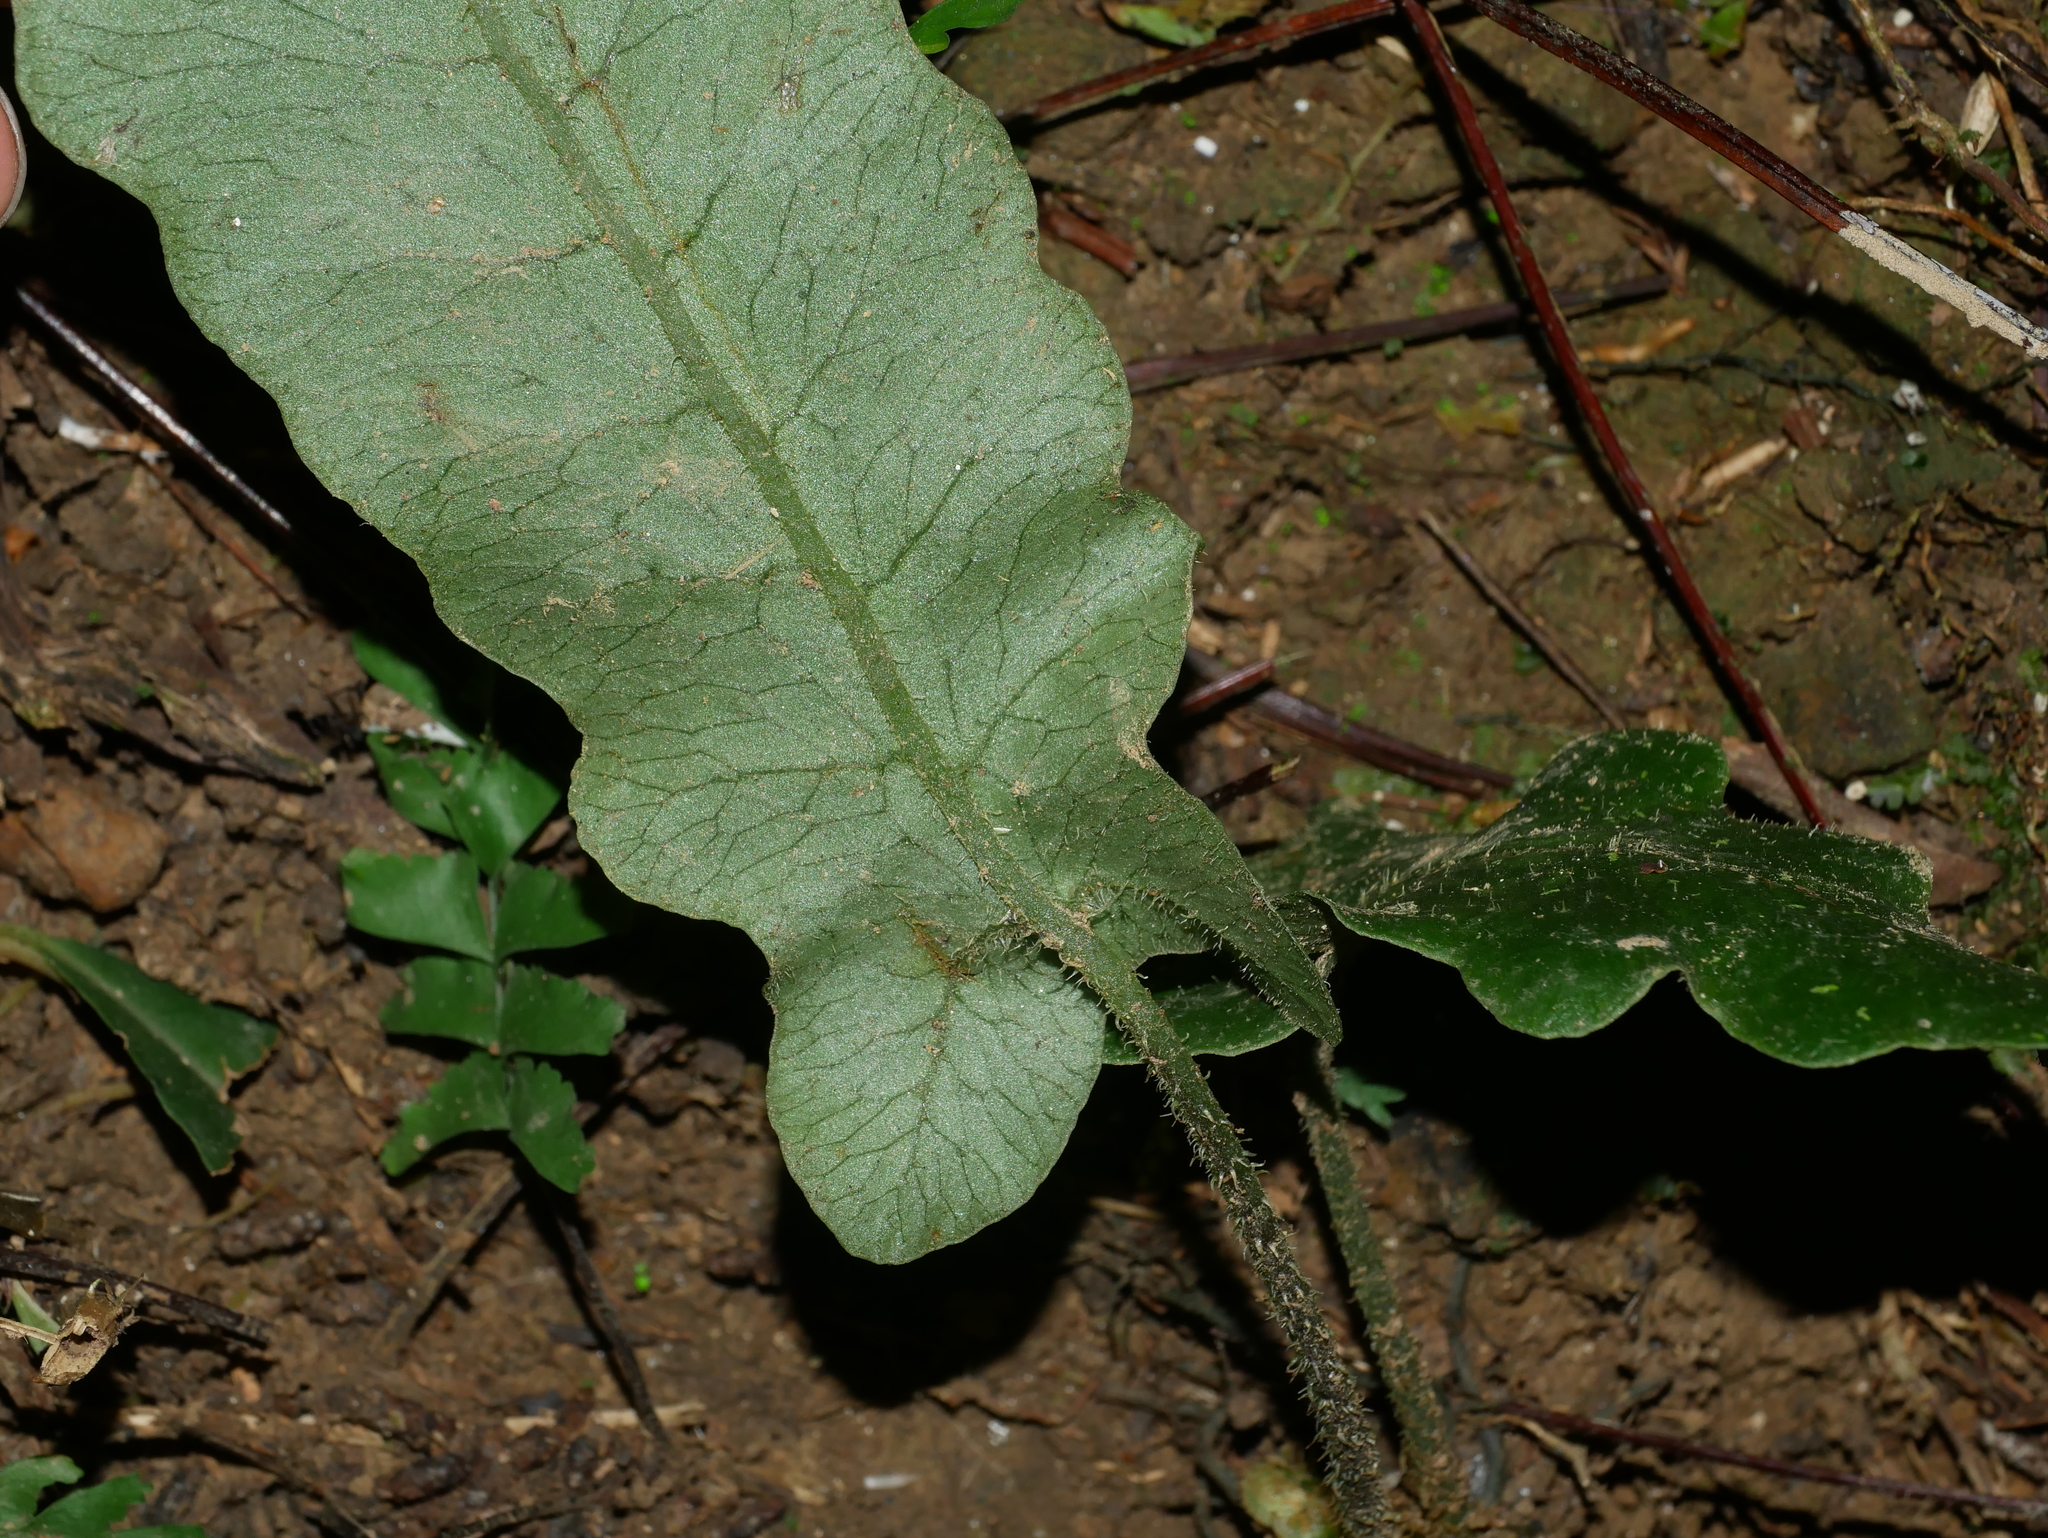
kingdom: Plantae
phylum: Tracheophyta
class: Polypodiopsida
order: Polypodiales
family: Thelypteridaceae
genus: Stegnogramma
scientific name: Stegnogramma wilfordii
